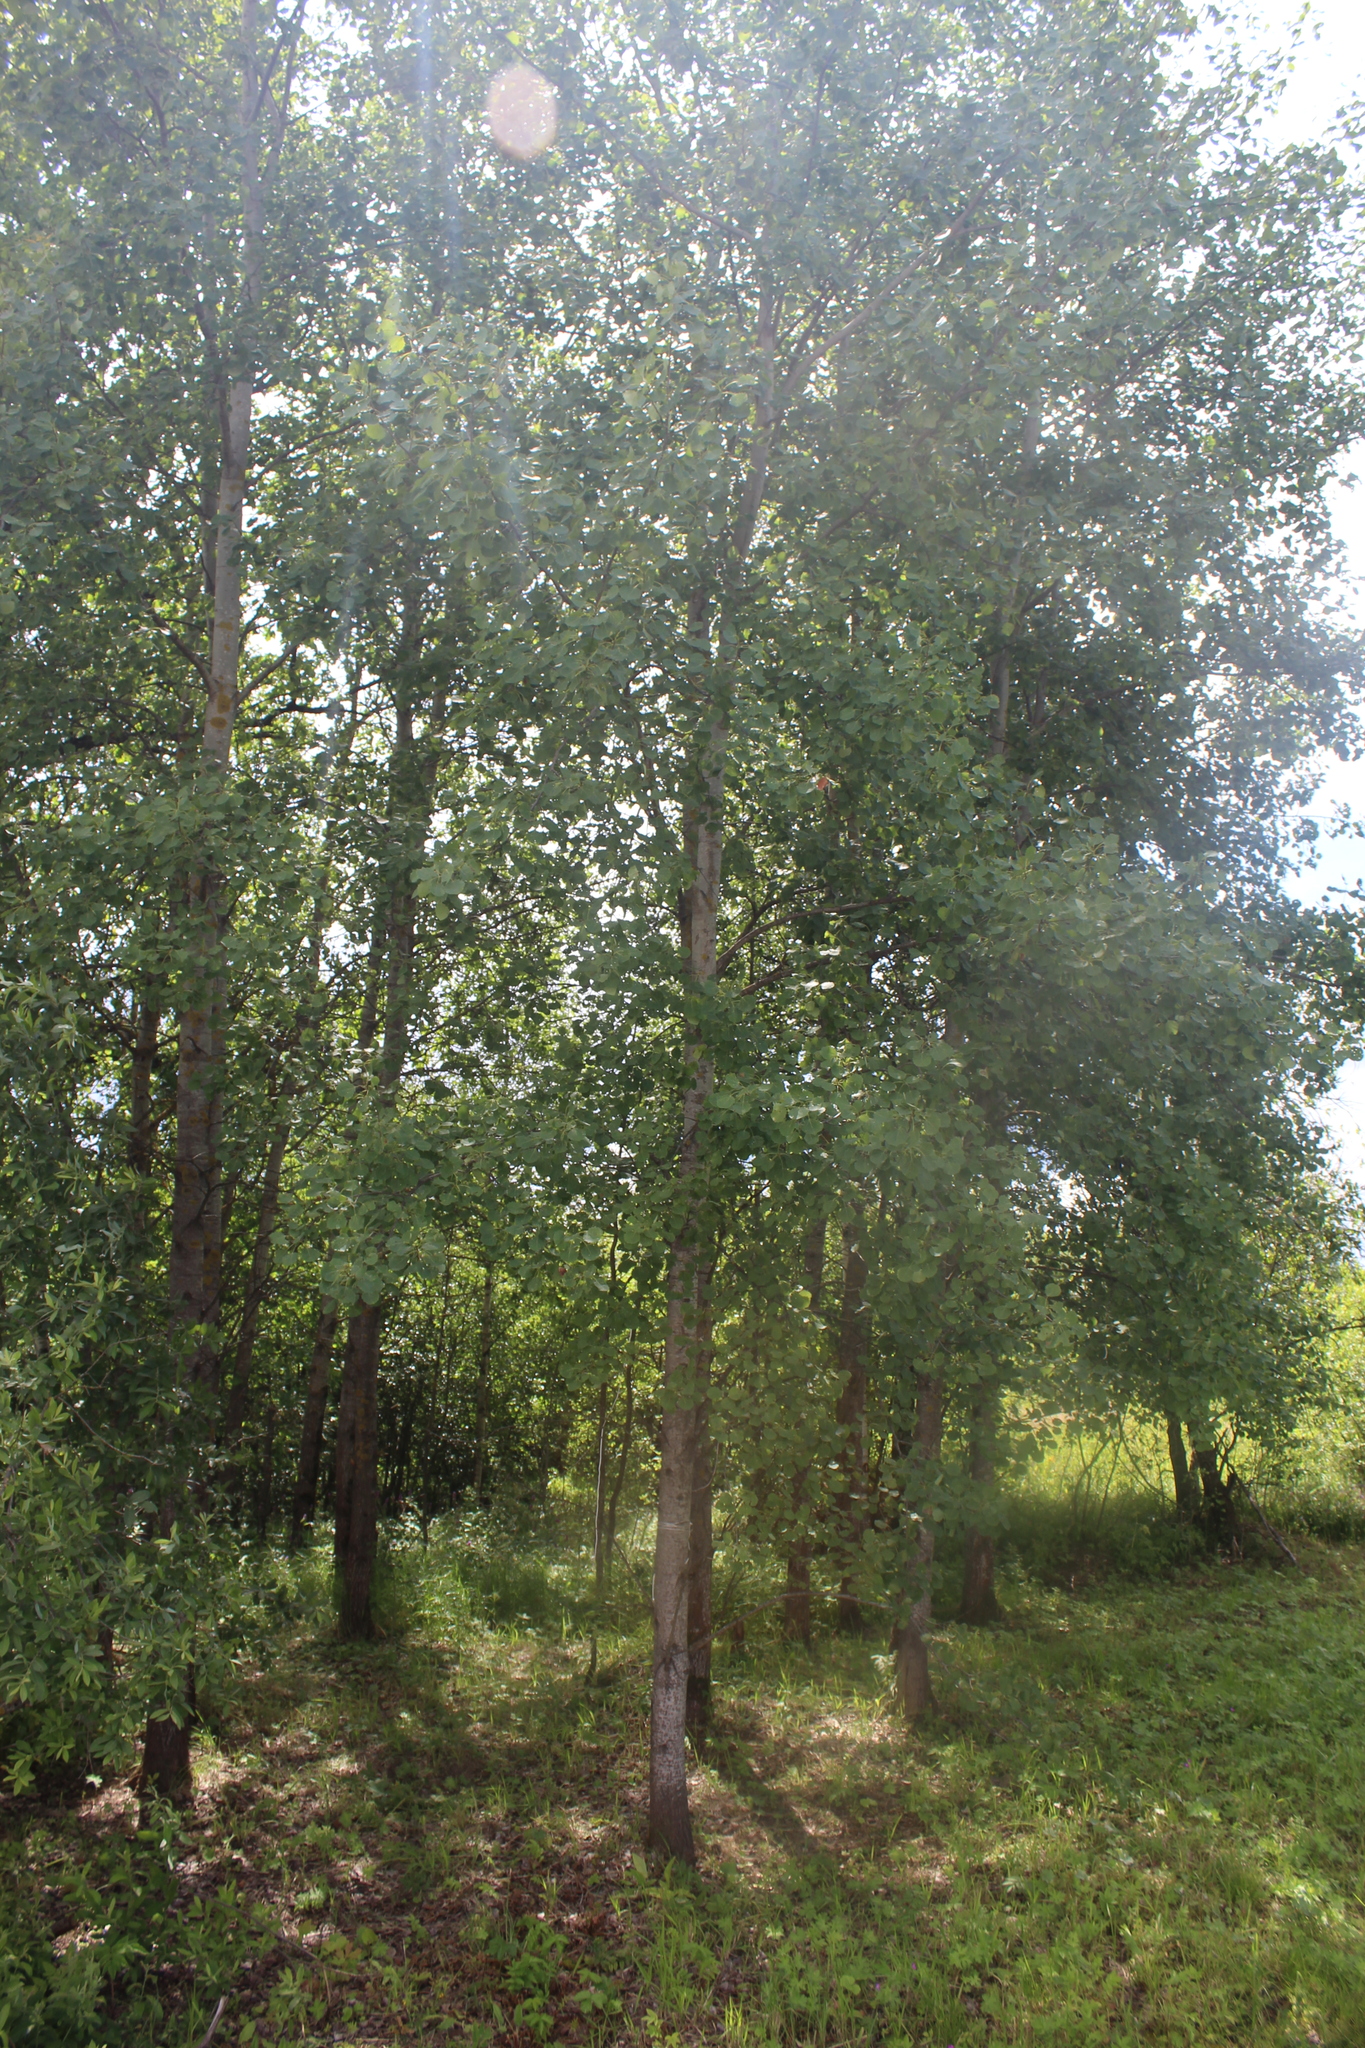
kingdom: Plantae
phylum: Tracheophyta
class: Magnoliopsida
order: Malpighiales
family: Salicaceae
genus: Populus
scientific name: Populus tremula
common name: European aspen
